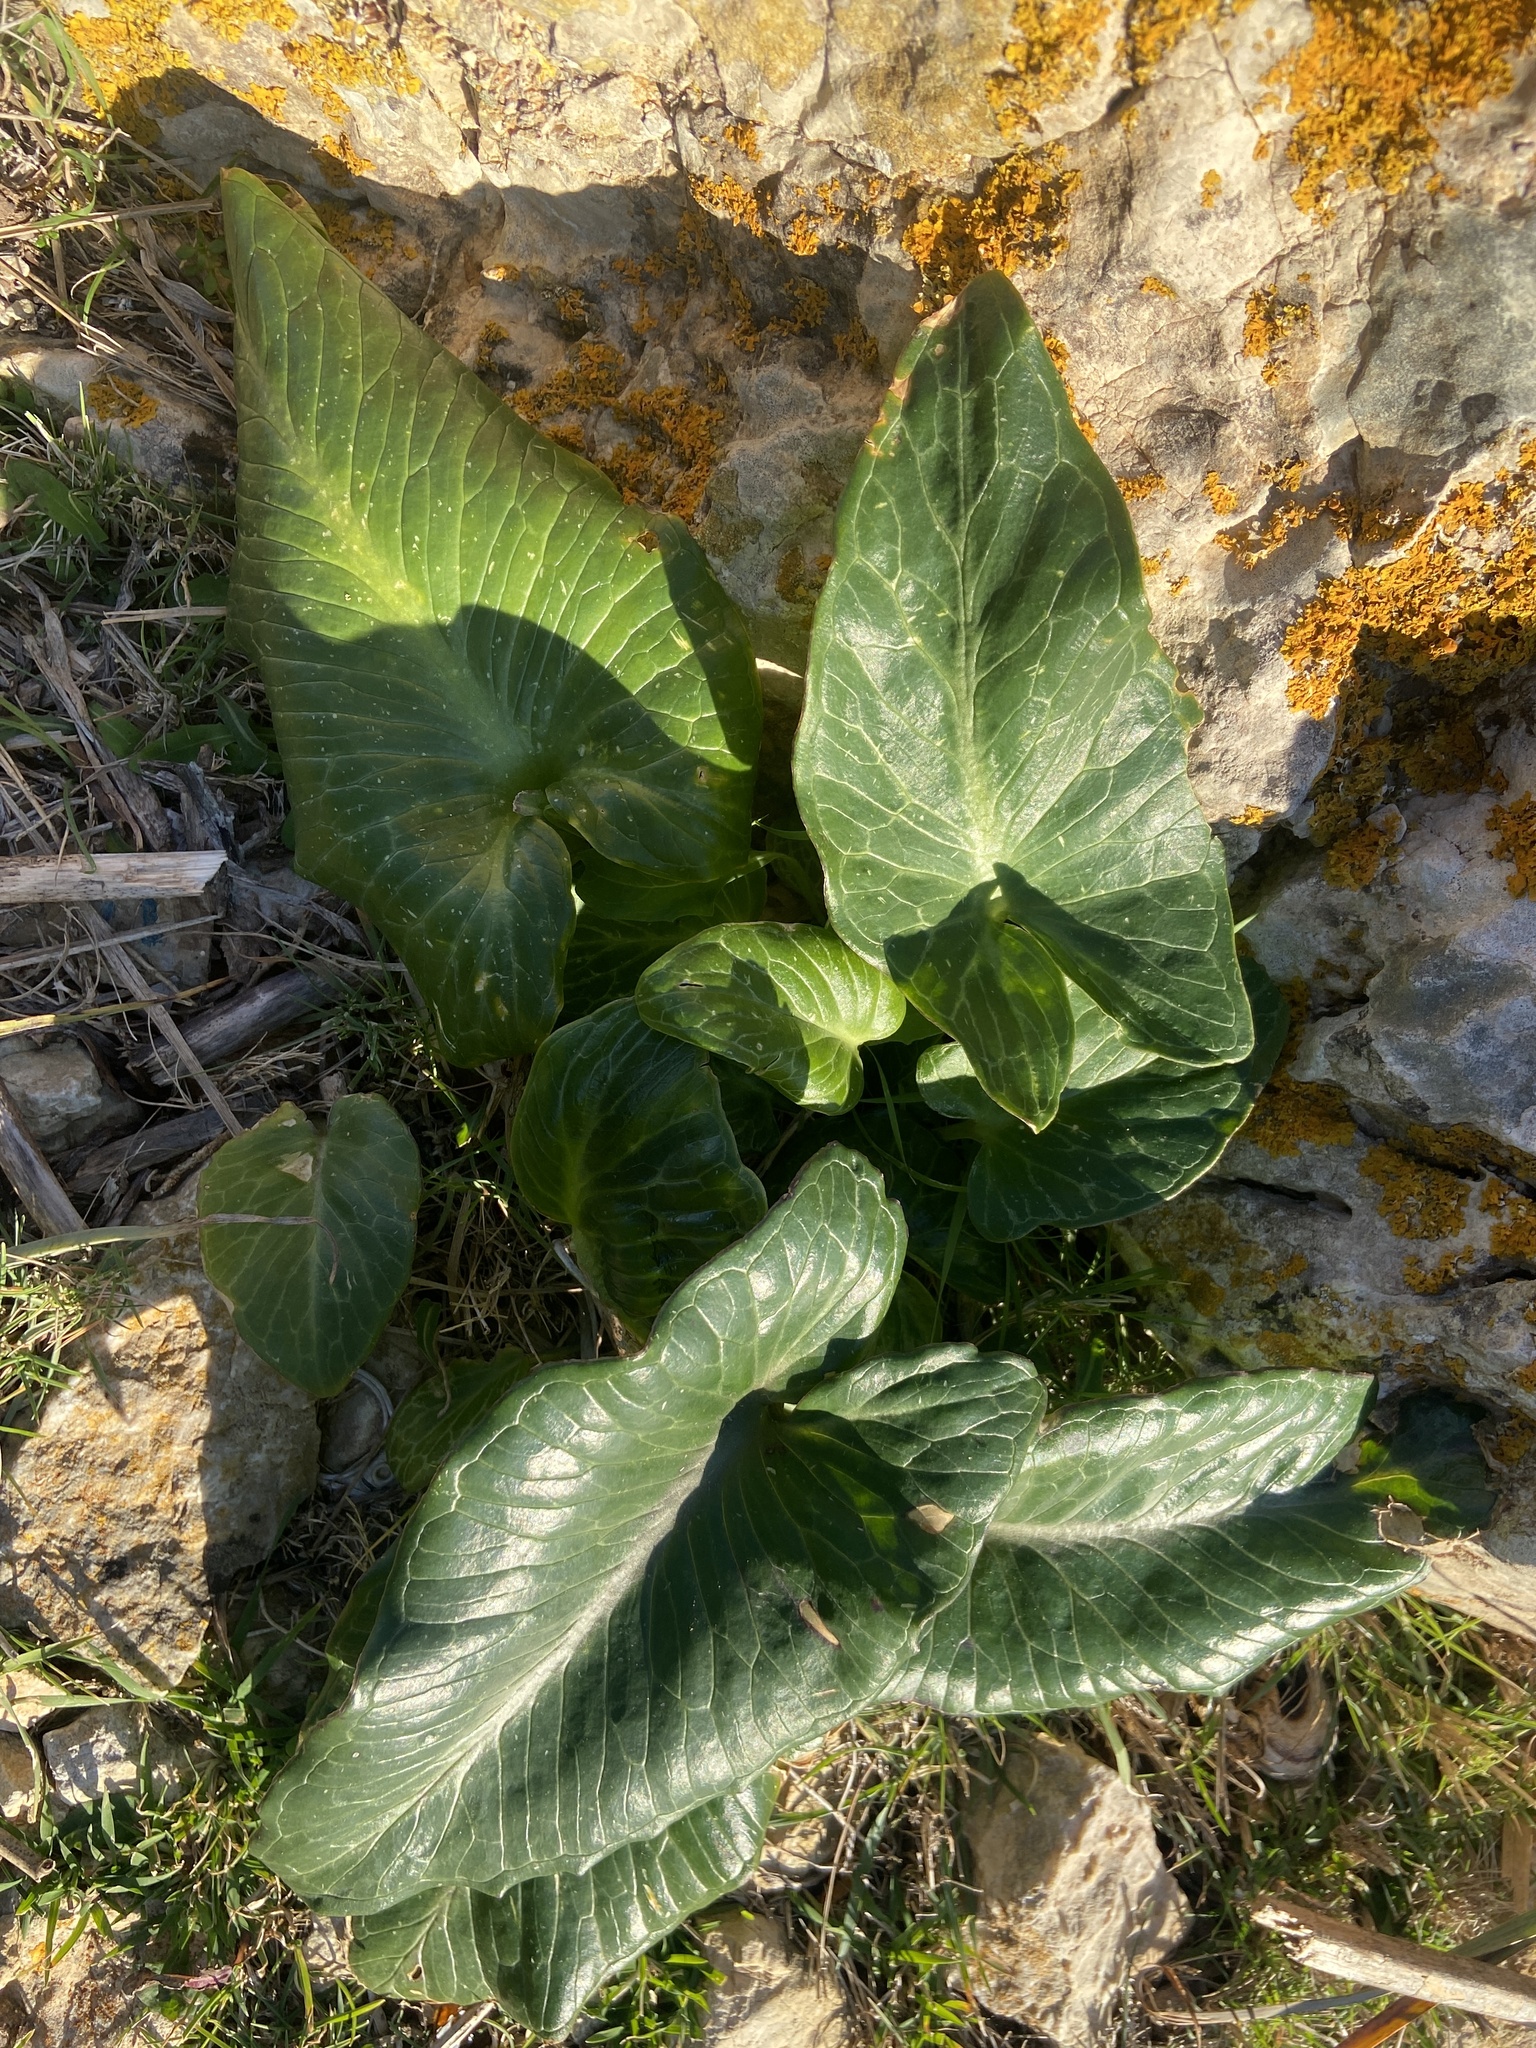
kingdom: Plantae
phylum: Tracheophyta
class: Liliopsida
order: Alismatales
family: Araceae
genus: Arum
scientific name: Arum pictum
